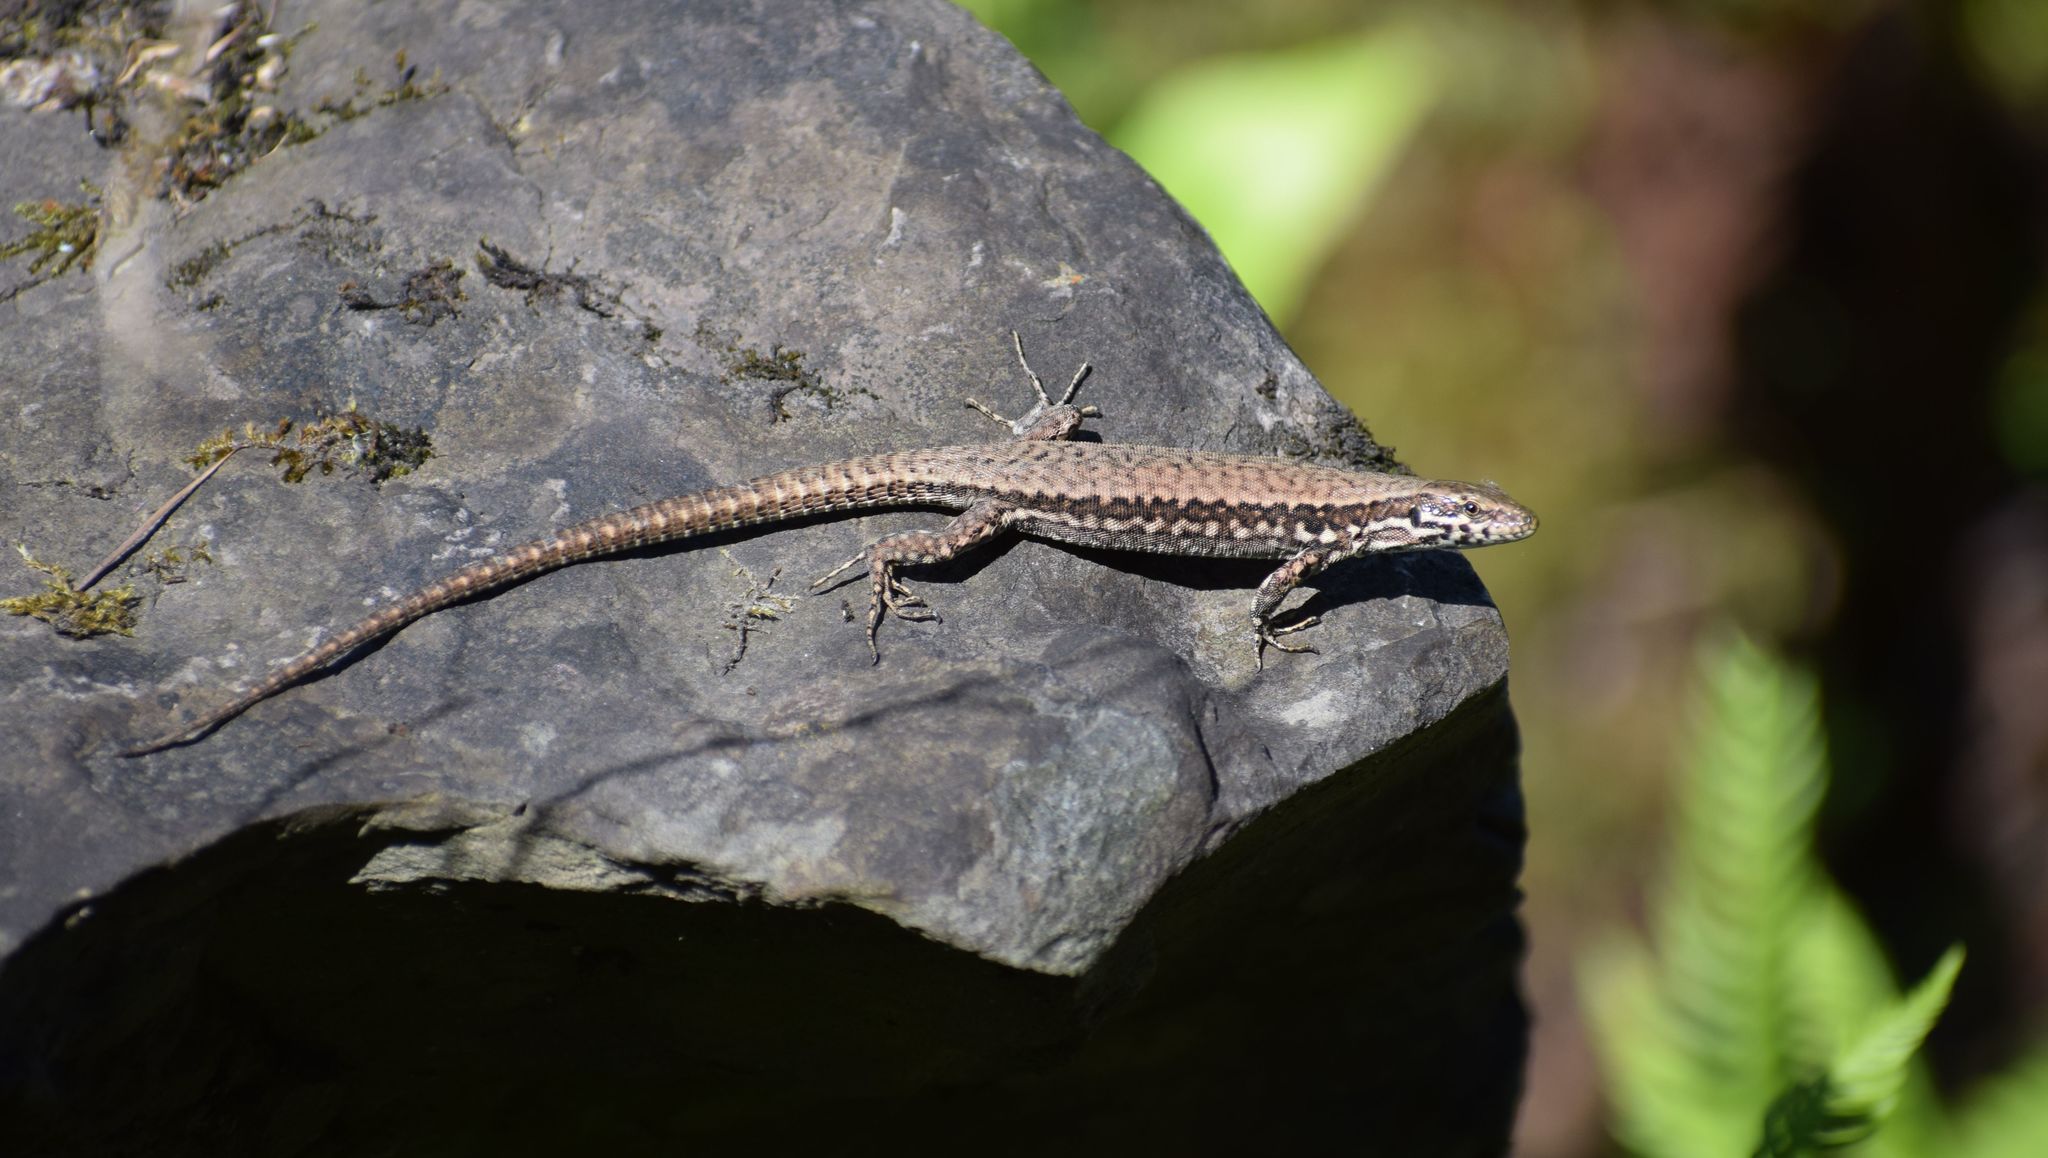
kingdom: Animalia
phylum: Chordata
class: Squamata
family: Lacertidae
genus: Podarcis
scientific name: Podarcis muralis
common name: Common wall lizard
